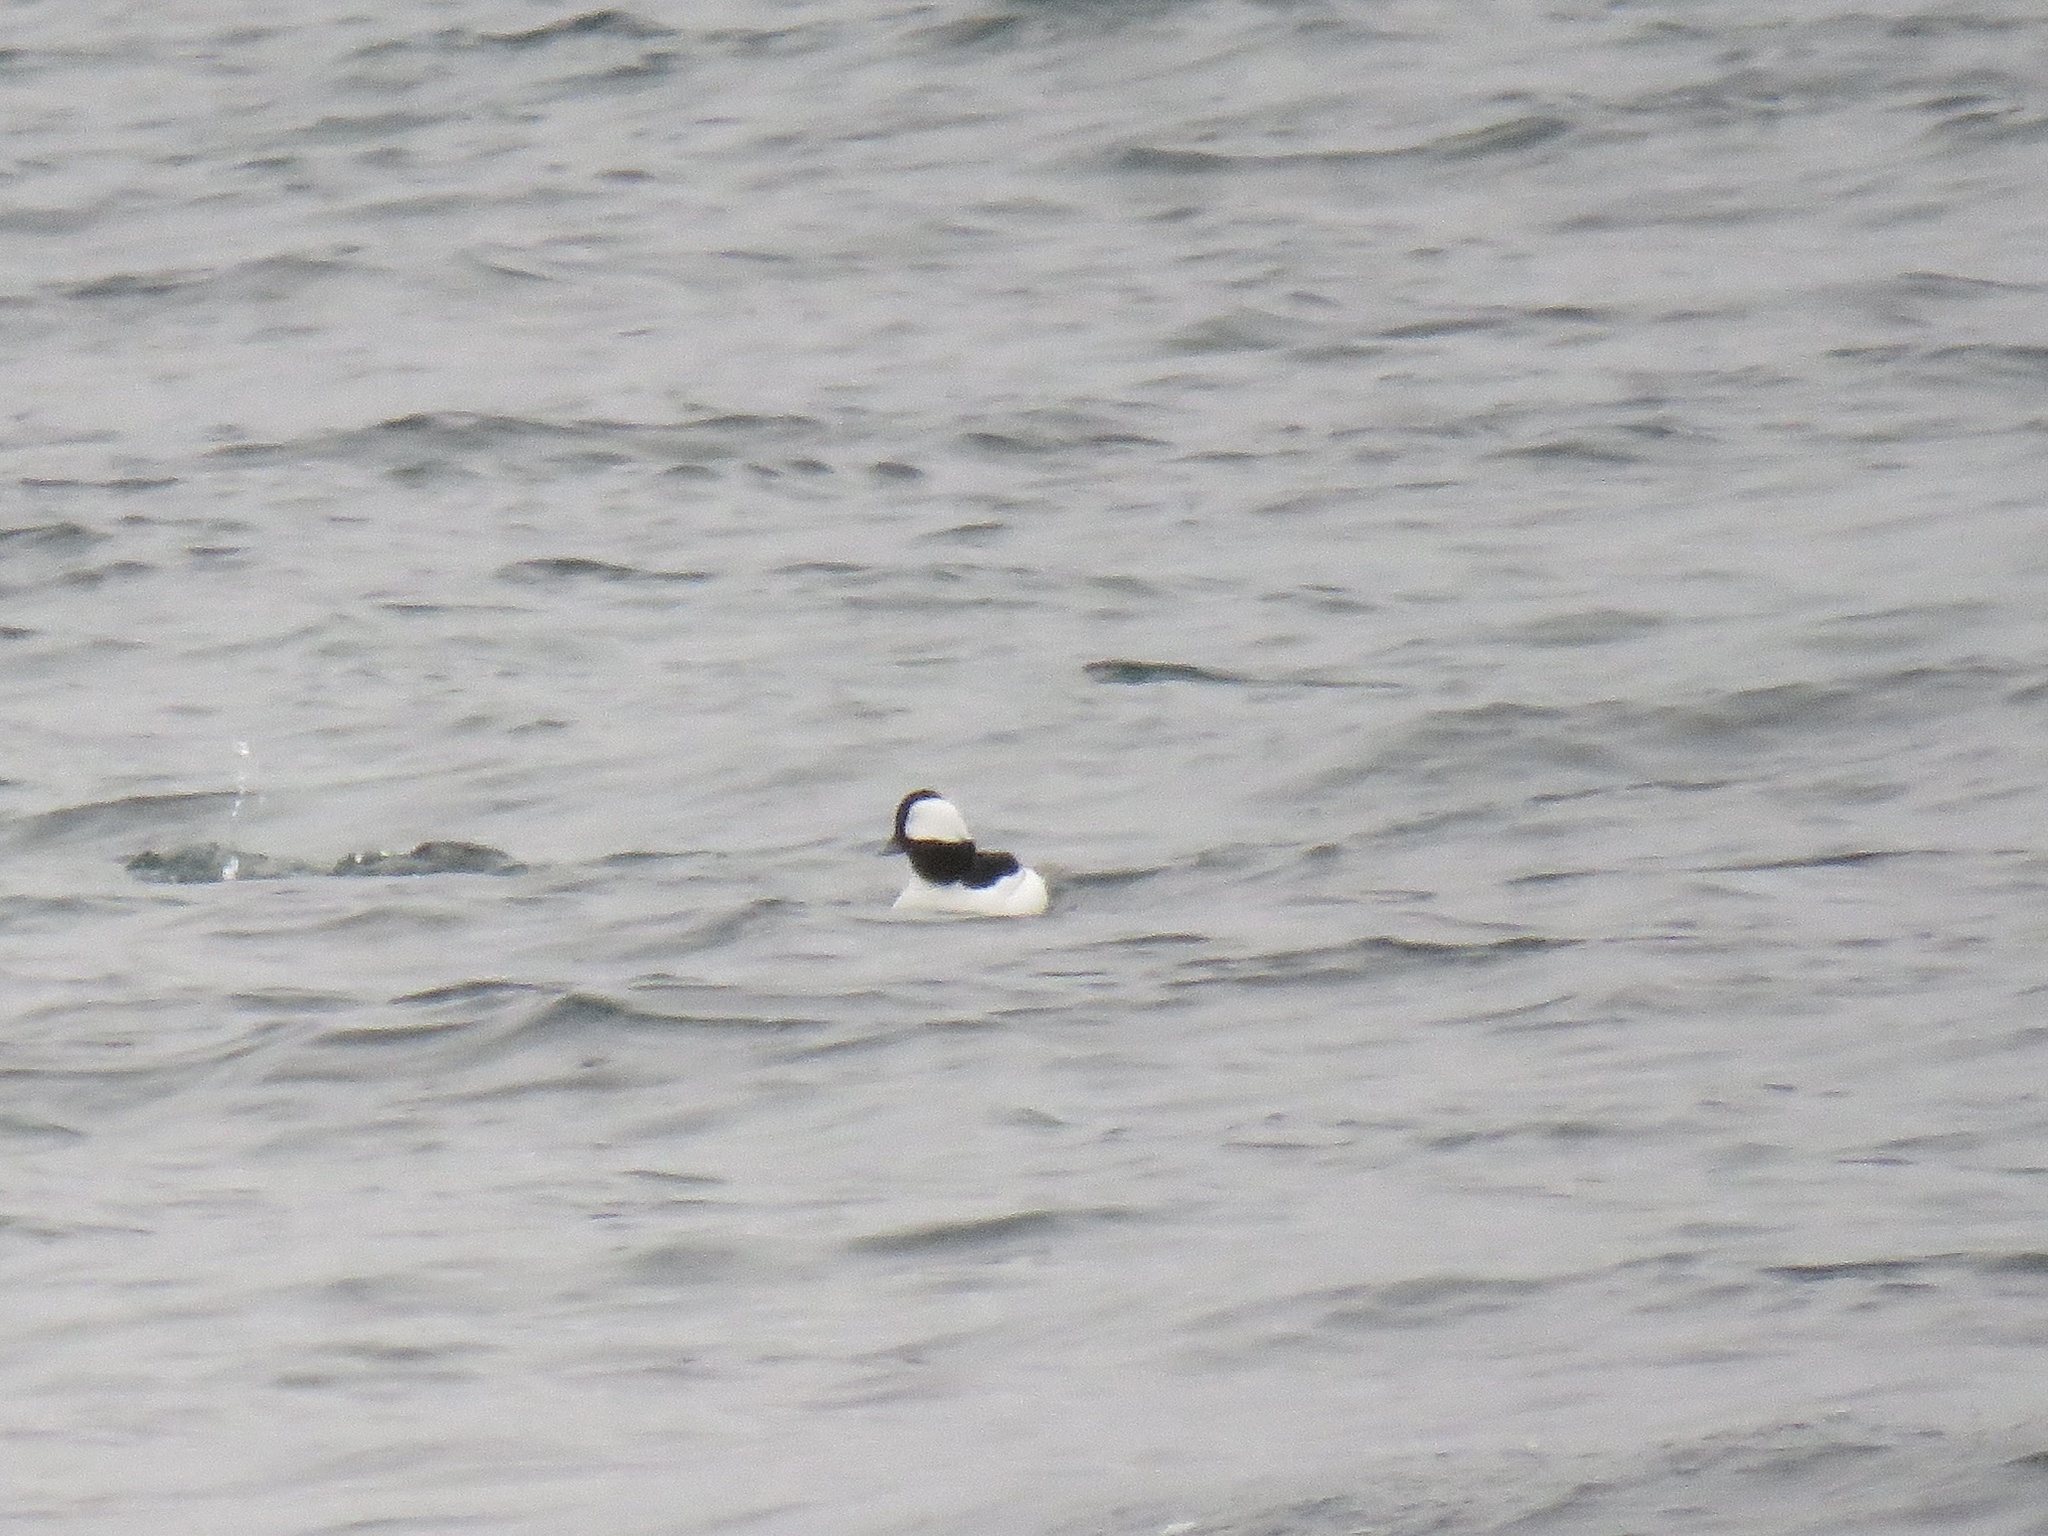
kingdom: Animalia
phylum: Chordata
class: Aves
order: Anseriformes
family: Anatidae
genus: Bucephala
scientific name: Bucephala albeola
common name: Bufflehead
